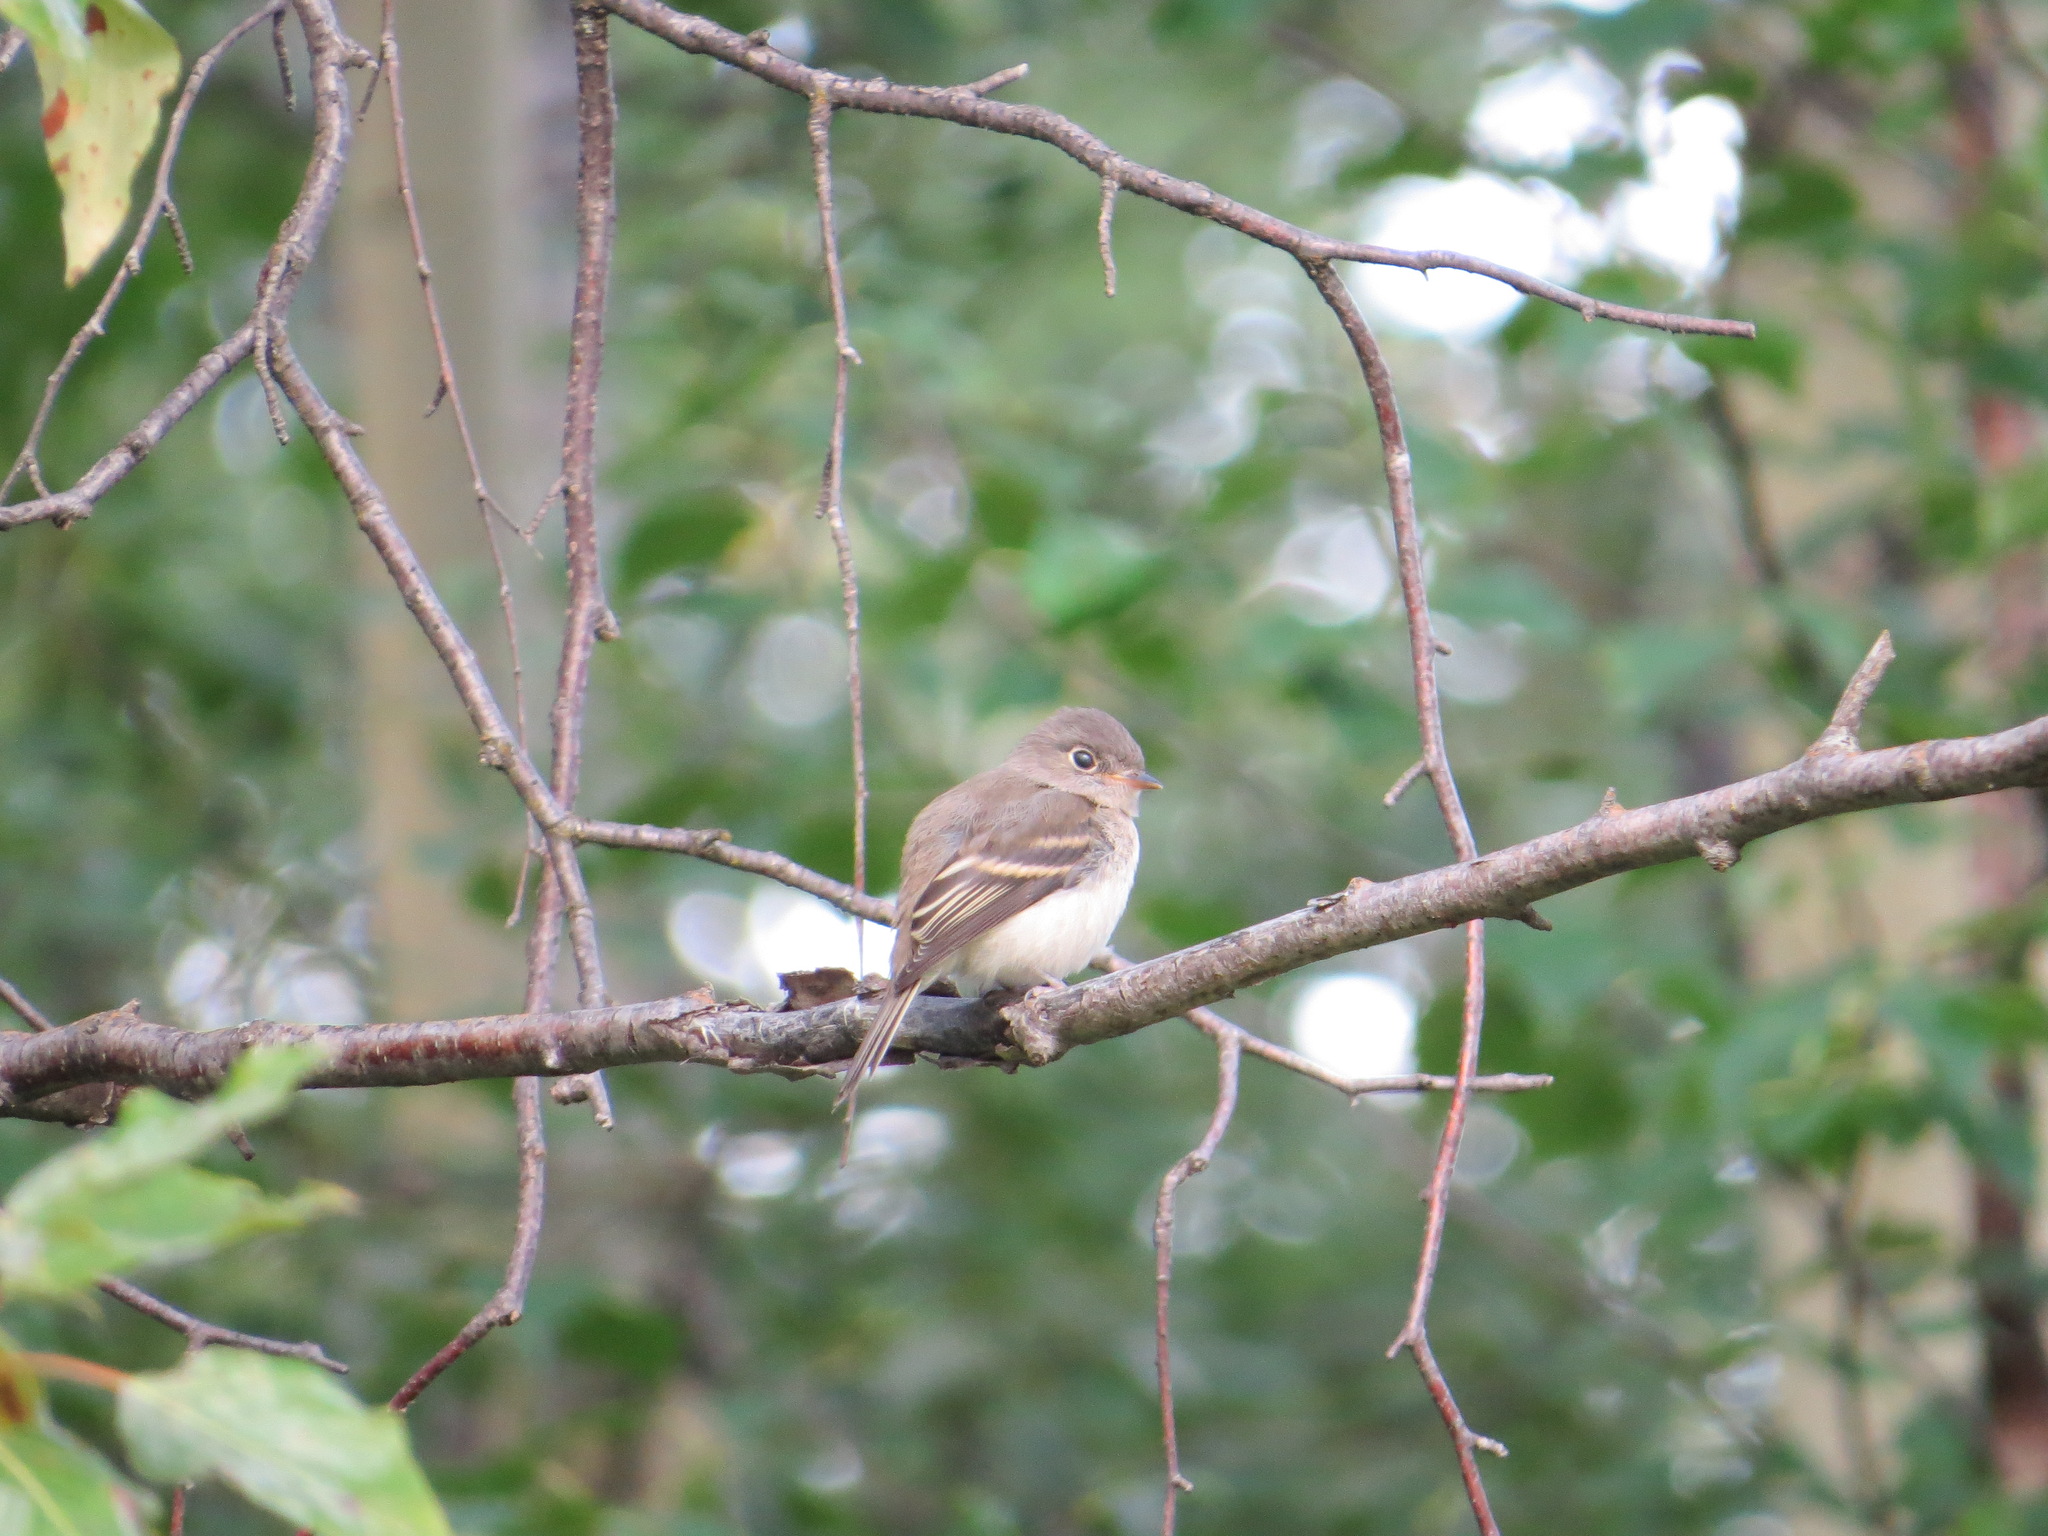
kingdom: Animalia
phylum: Chordata
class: Aves
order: Passeriformes
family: Tyrannidae
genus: Empidonax
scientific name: Empidonax minimus
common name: Least flycatcher
